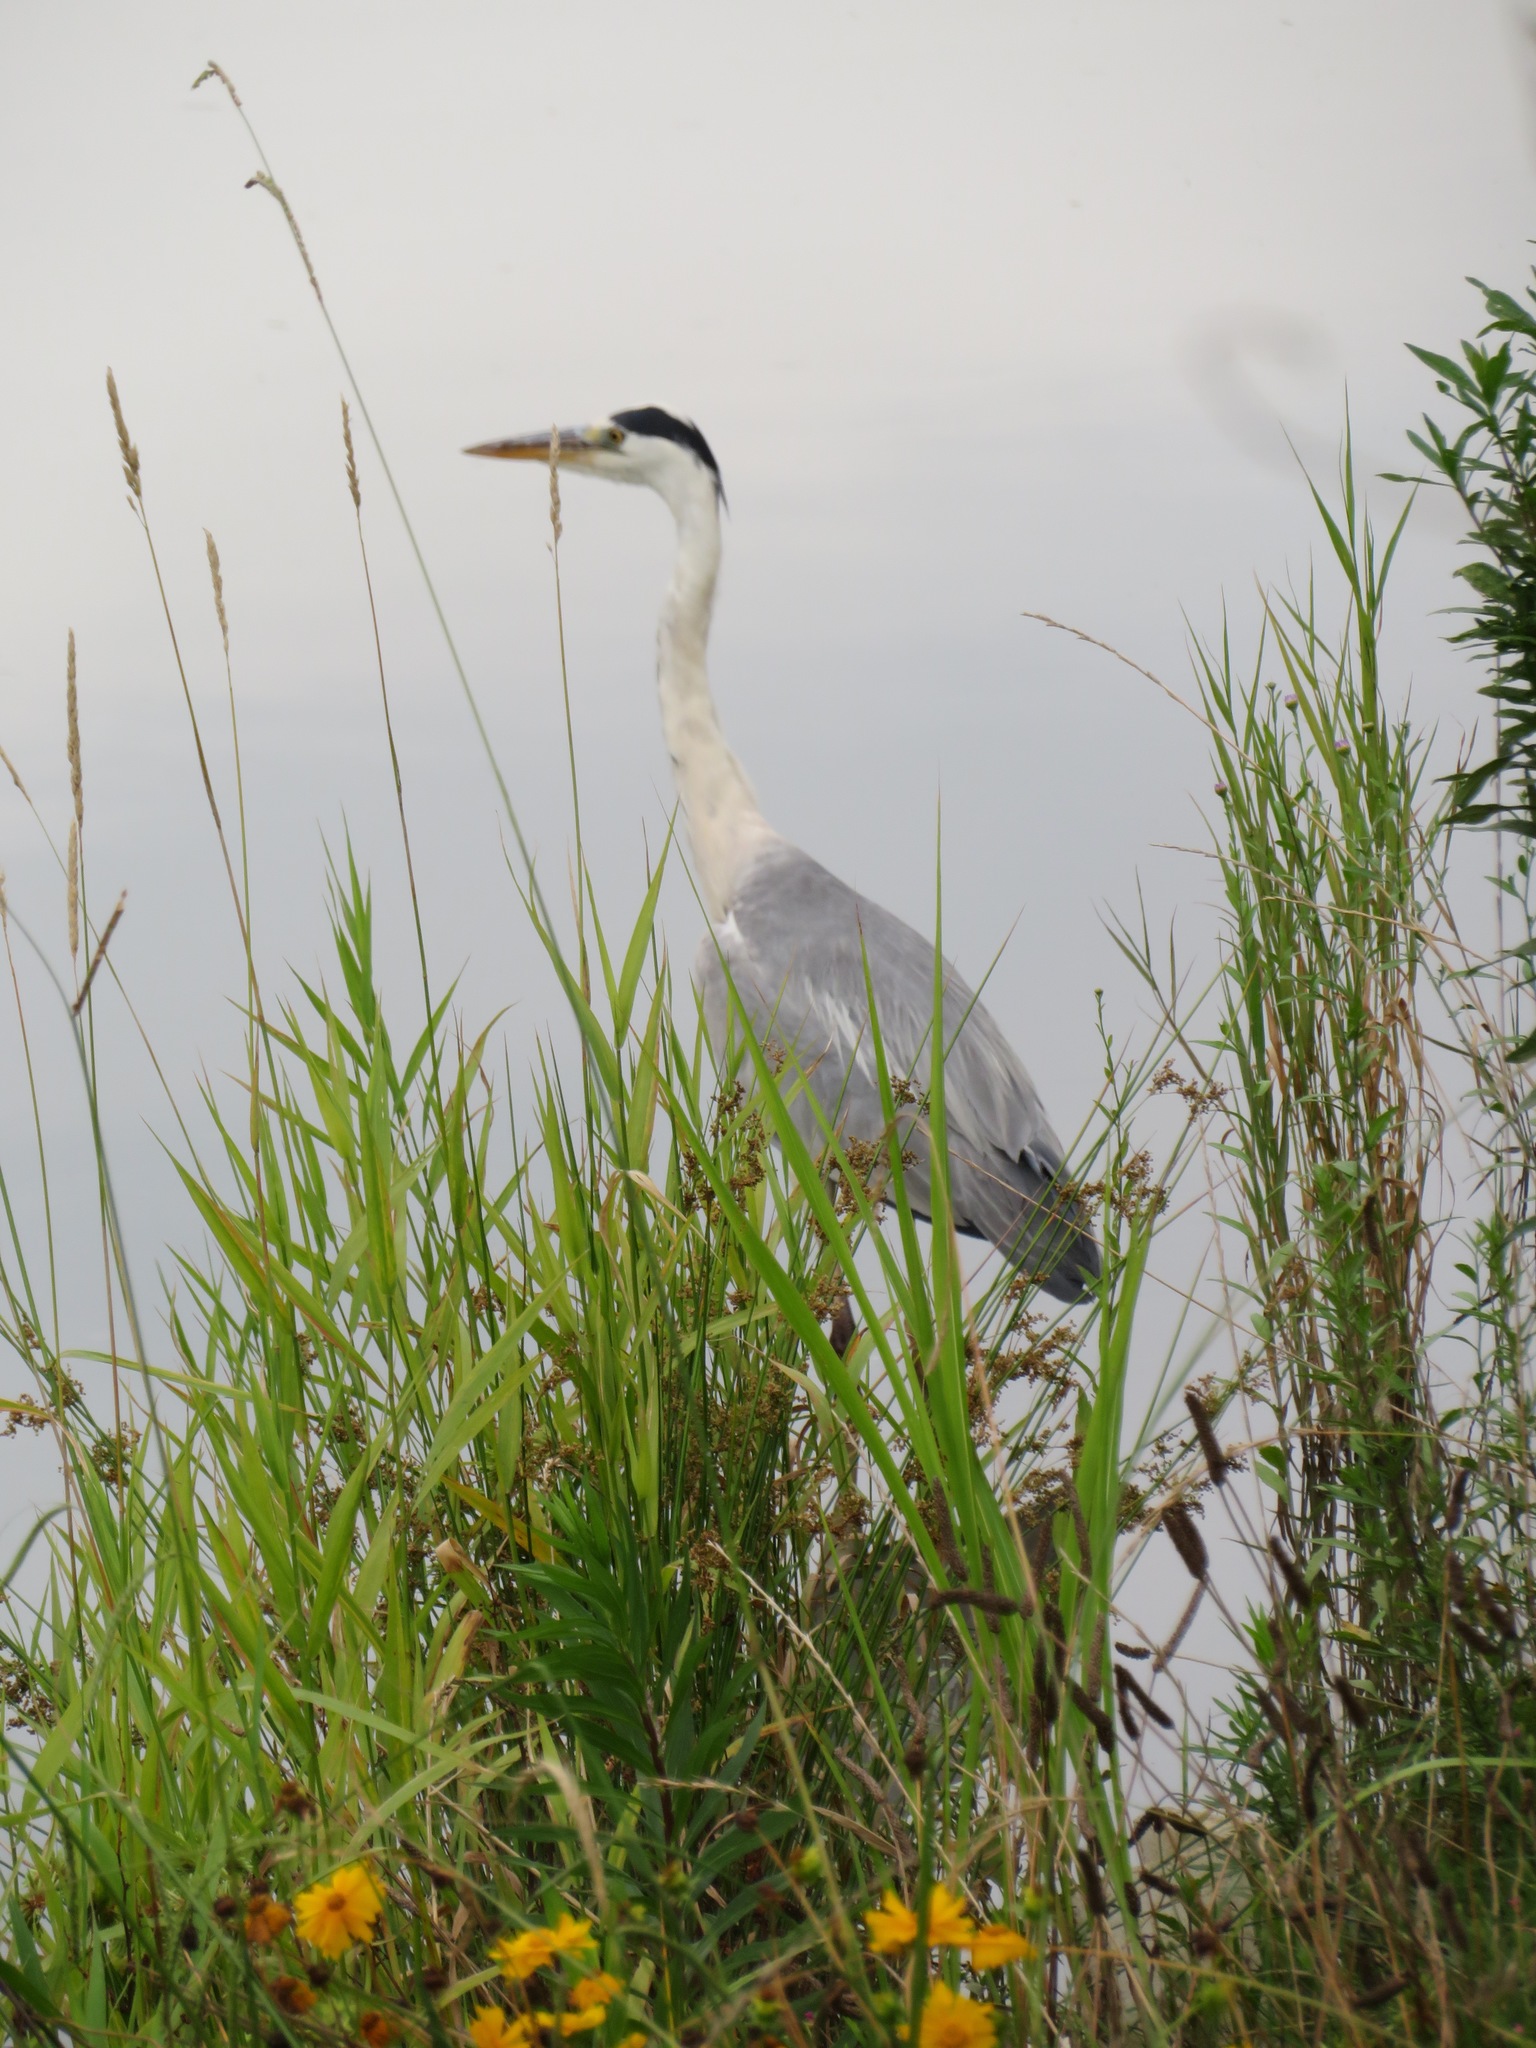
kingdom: Animalia
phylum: Chordata
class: Aves
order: Pelecaniformes
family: Ardeidae
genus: Ardea
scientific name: Ardea cinerea
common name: Grey heron
